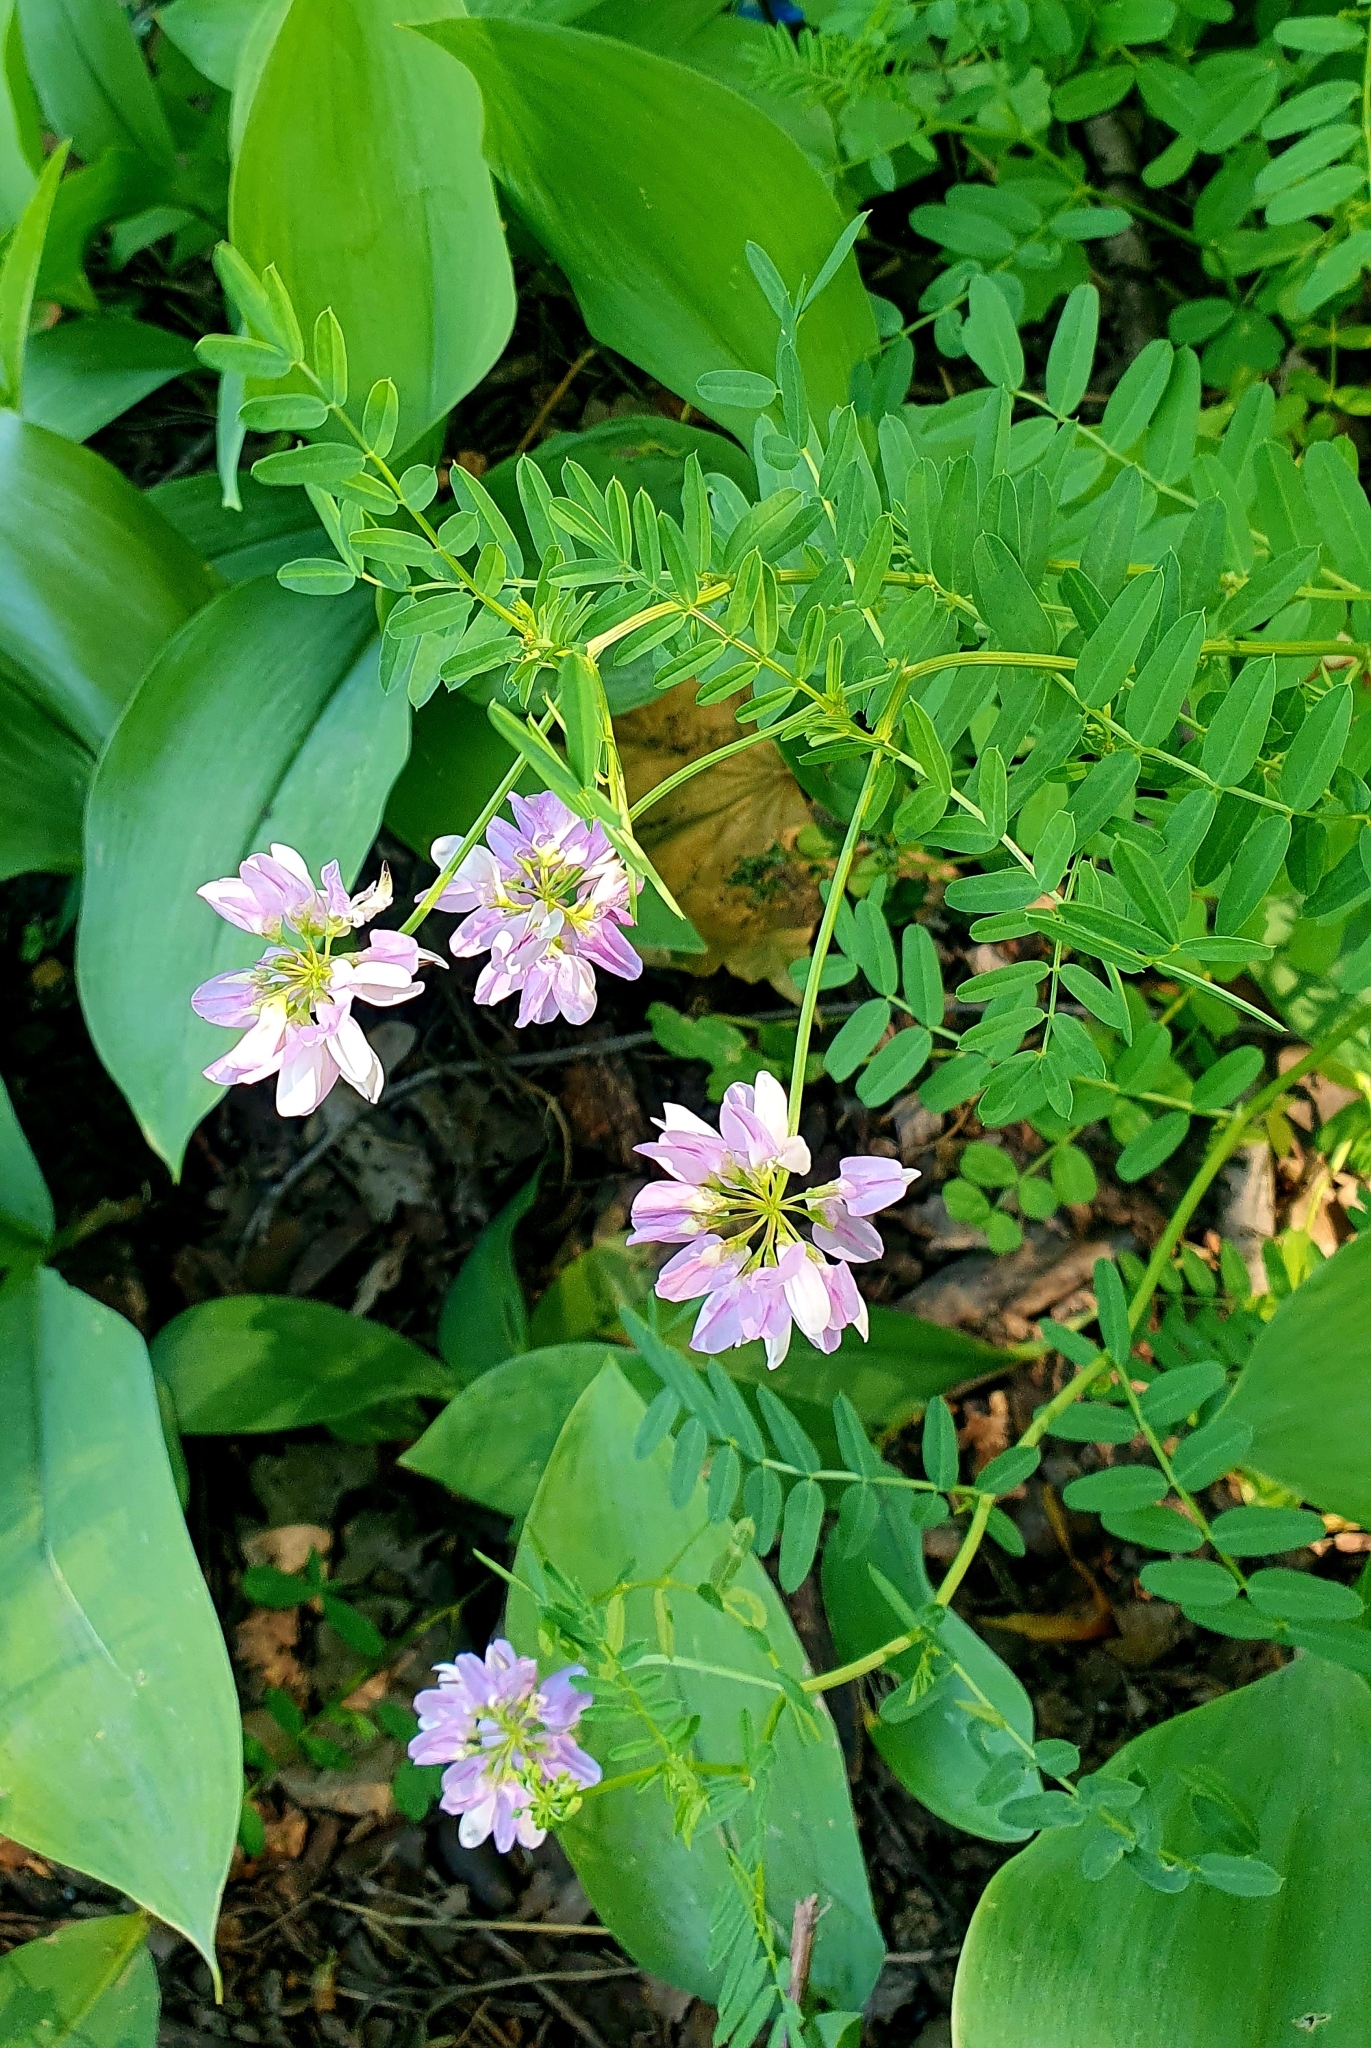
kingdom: Plantae
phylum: Tracheophyta
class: Magnoliopsida
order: Fabales
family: Fabaceae
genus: Coronilla
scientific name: Coronilla varia
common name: Crownvetch
